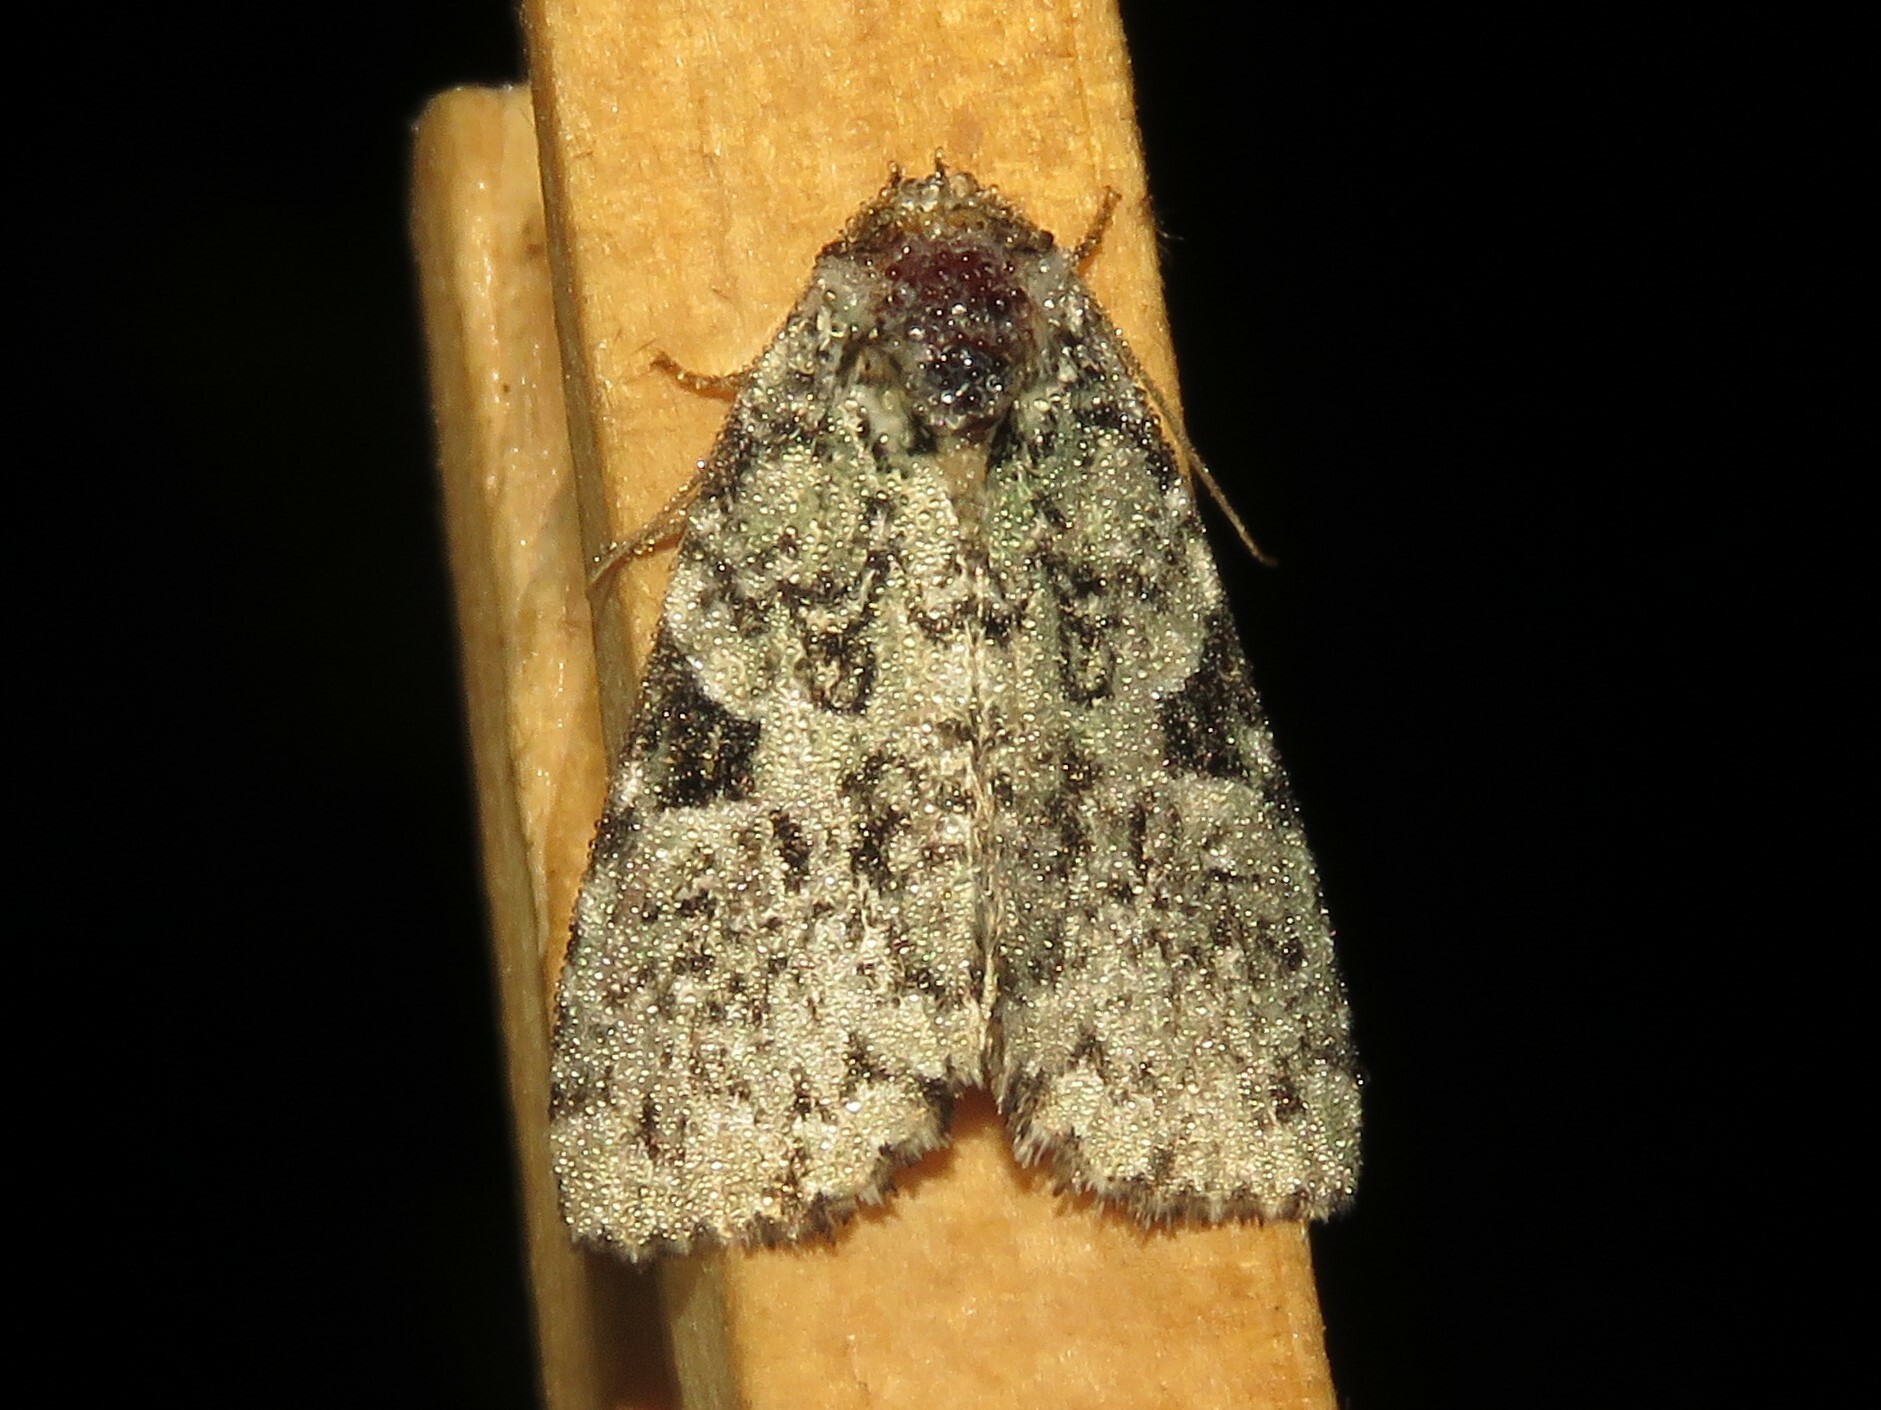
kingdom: Animalia
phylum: Arthropoda
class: Insecta
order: Lepidoptera
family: Noctuidae
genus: Leuconycta
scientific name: Leuconycta diphteroides
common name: Green leuconycta moth
